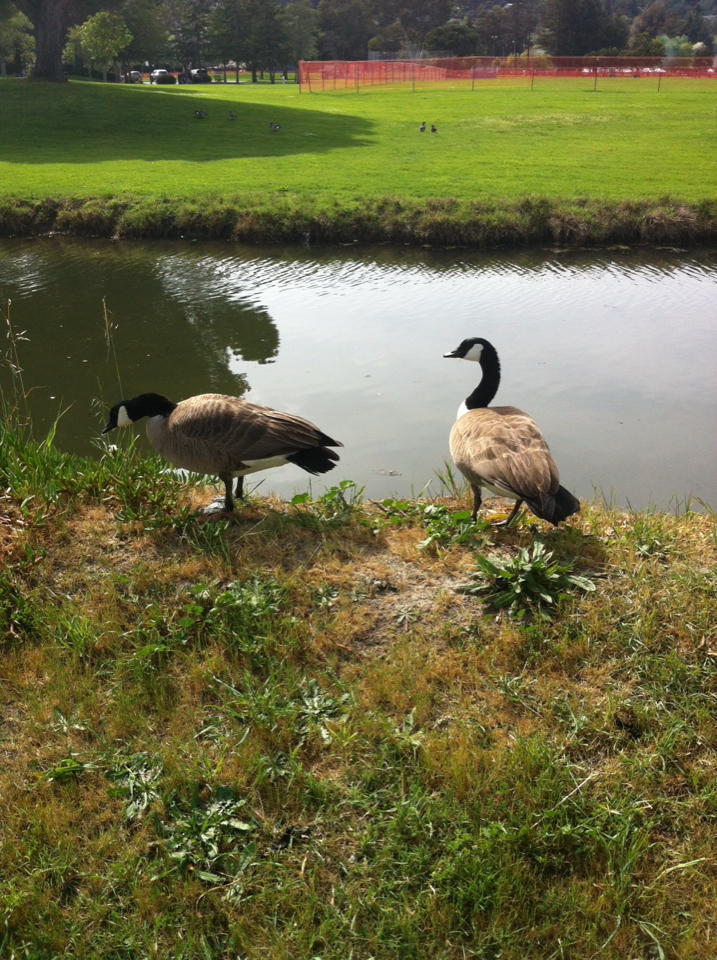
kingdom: Animalia
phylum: Chordata
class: Aves
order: Anseriformes
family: Anatidae
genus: Branta
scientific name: Branta canadensis
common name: Canada goose
